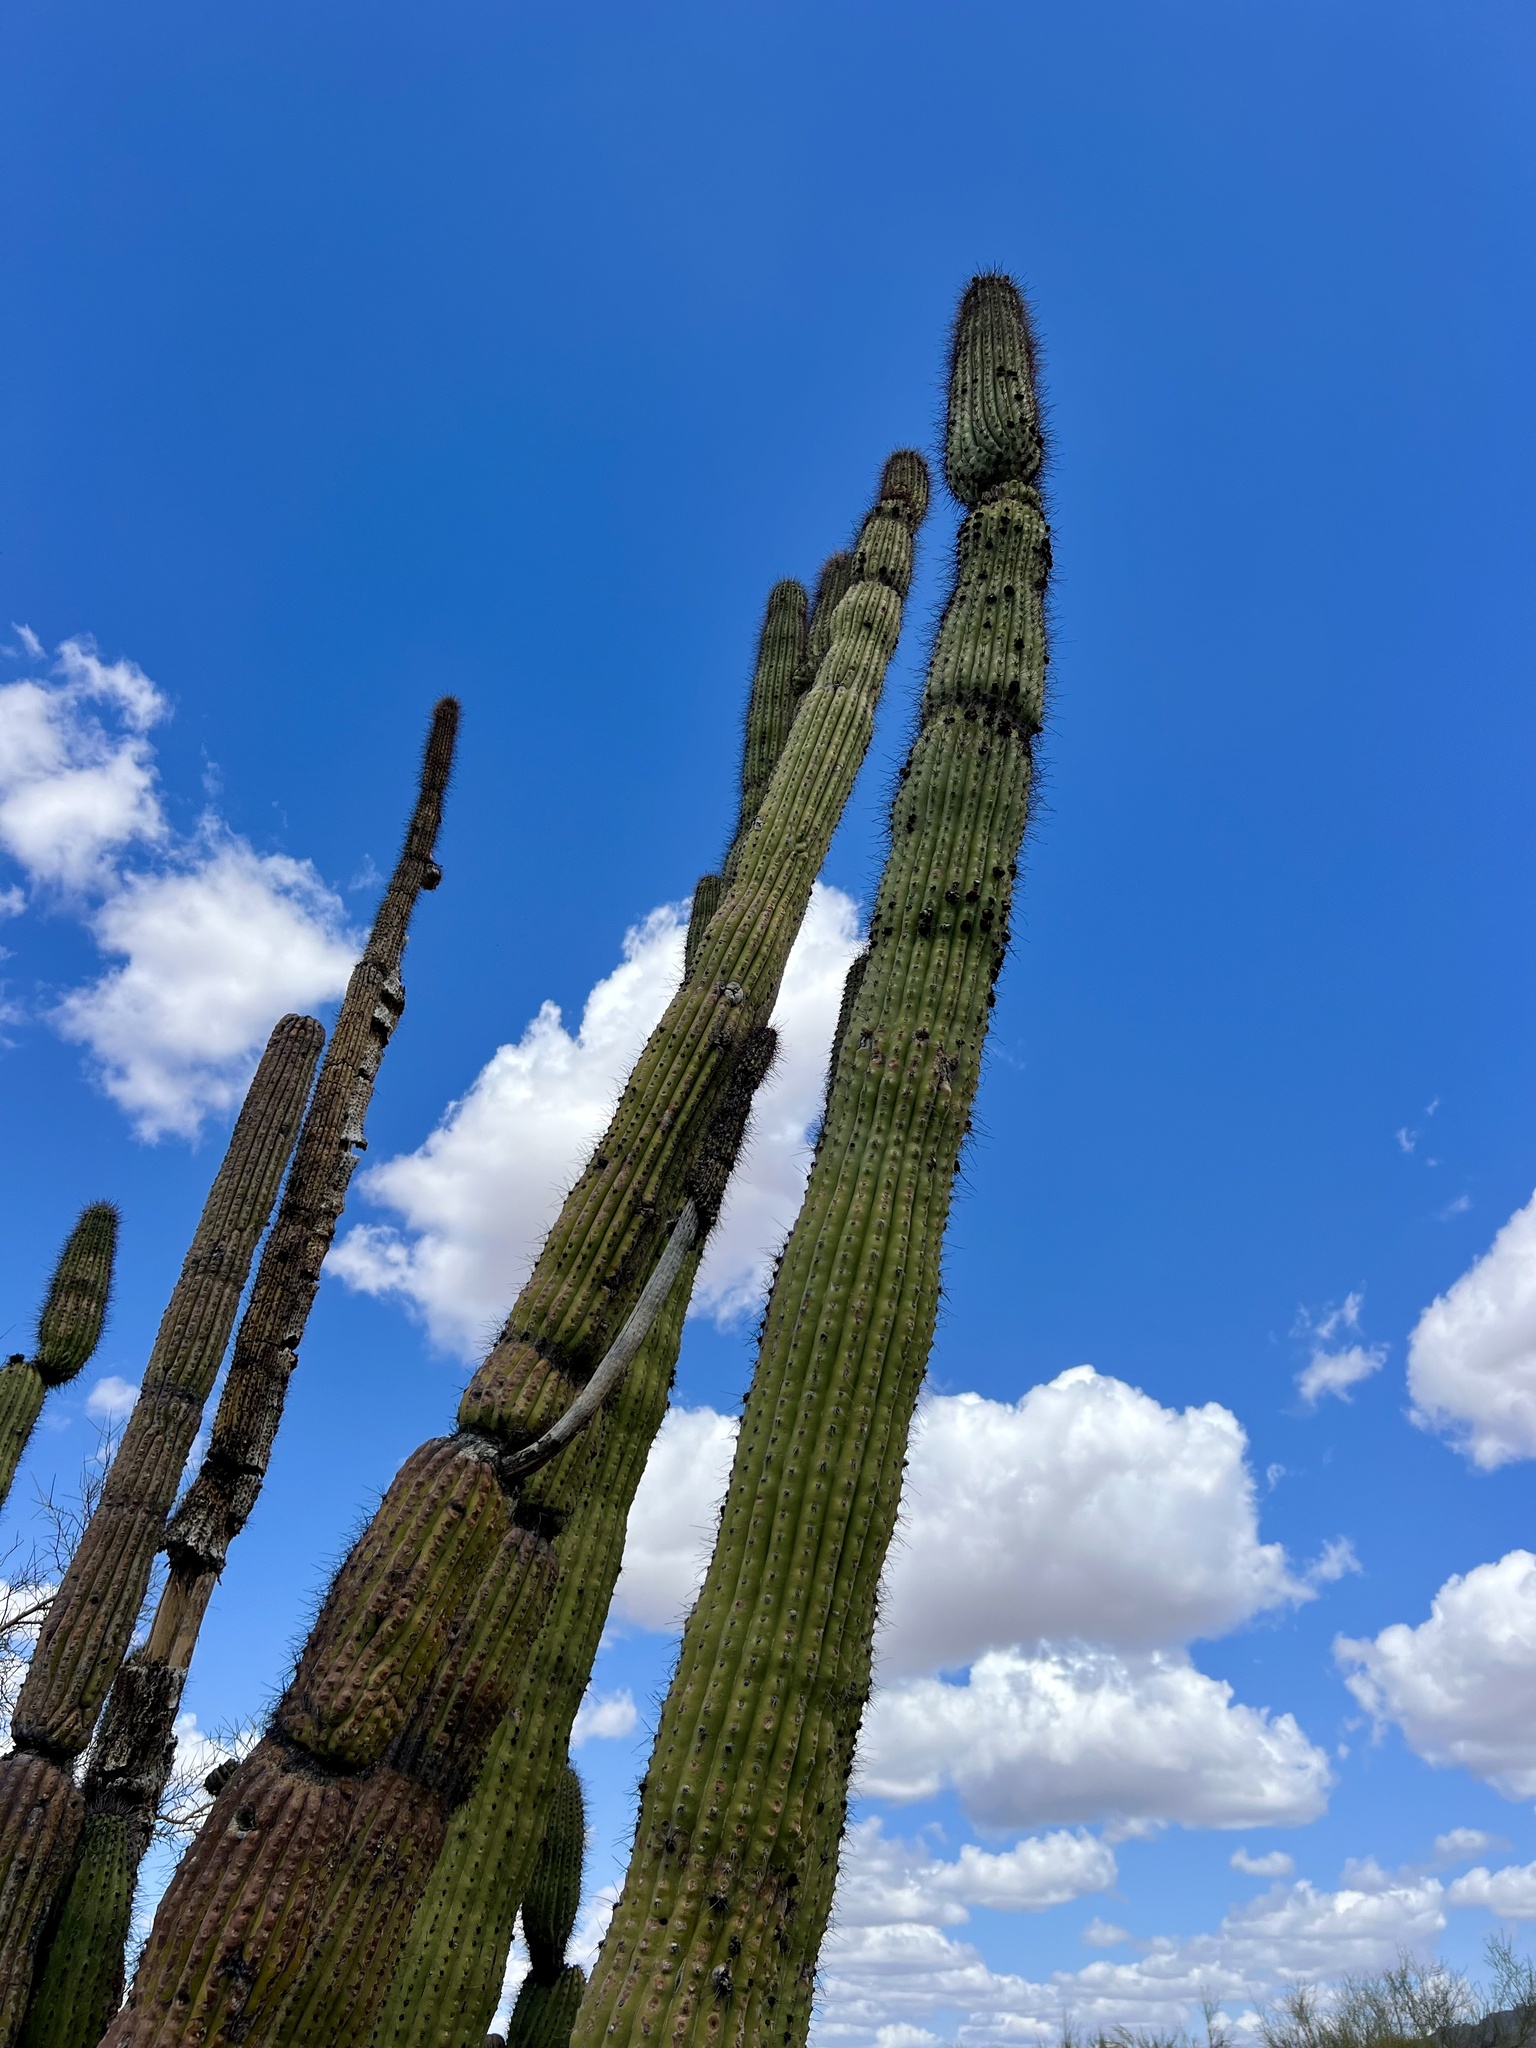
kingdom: Plantae
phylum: Tracheophyta
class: Magnoliopsida
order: Caryophyllales
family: Cactaceae
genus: Stenocereus
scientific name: Stenocereus thurberi
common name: Organ pipe cactus
